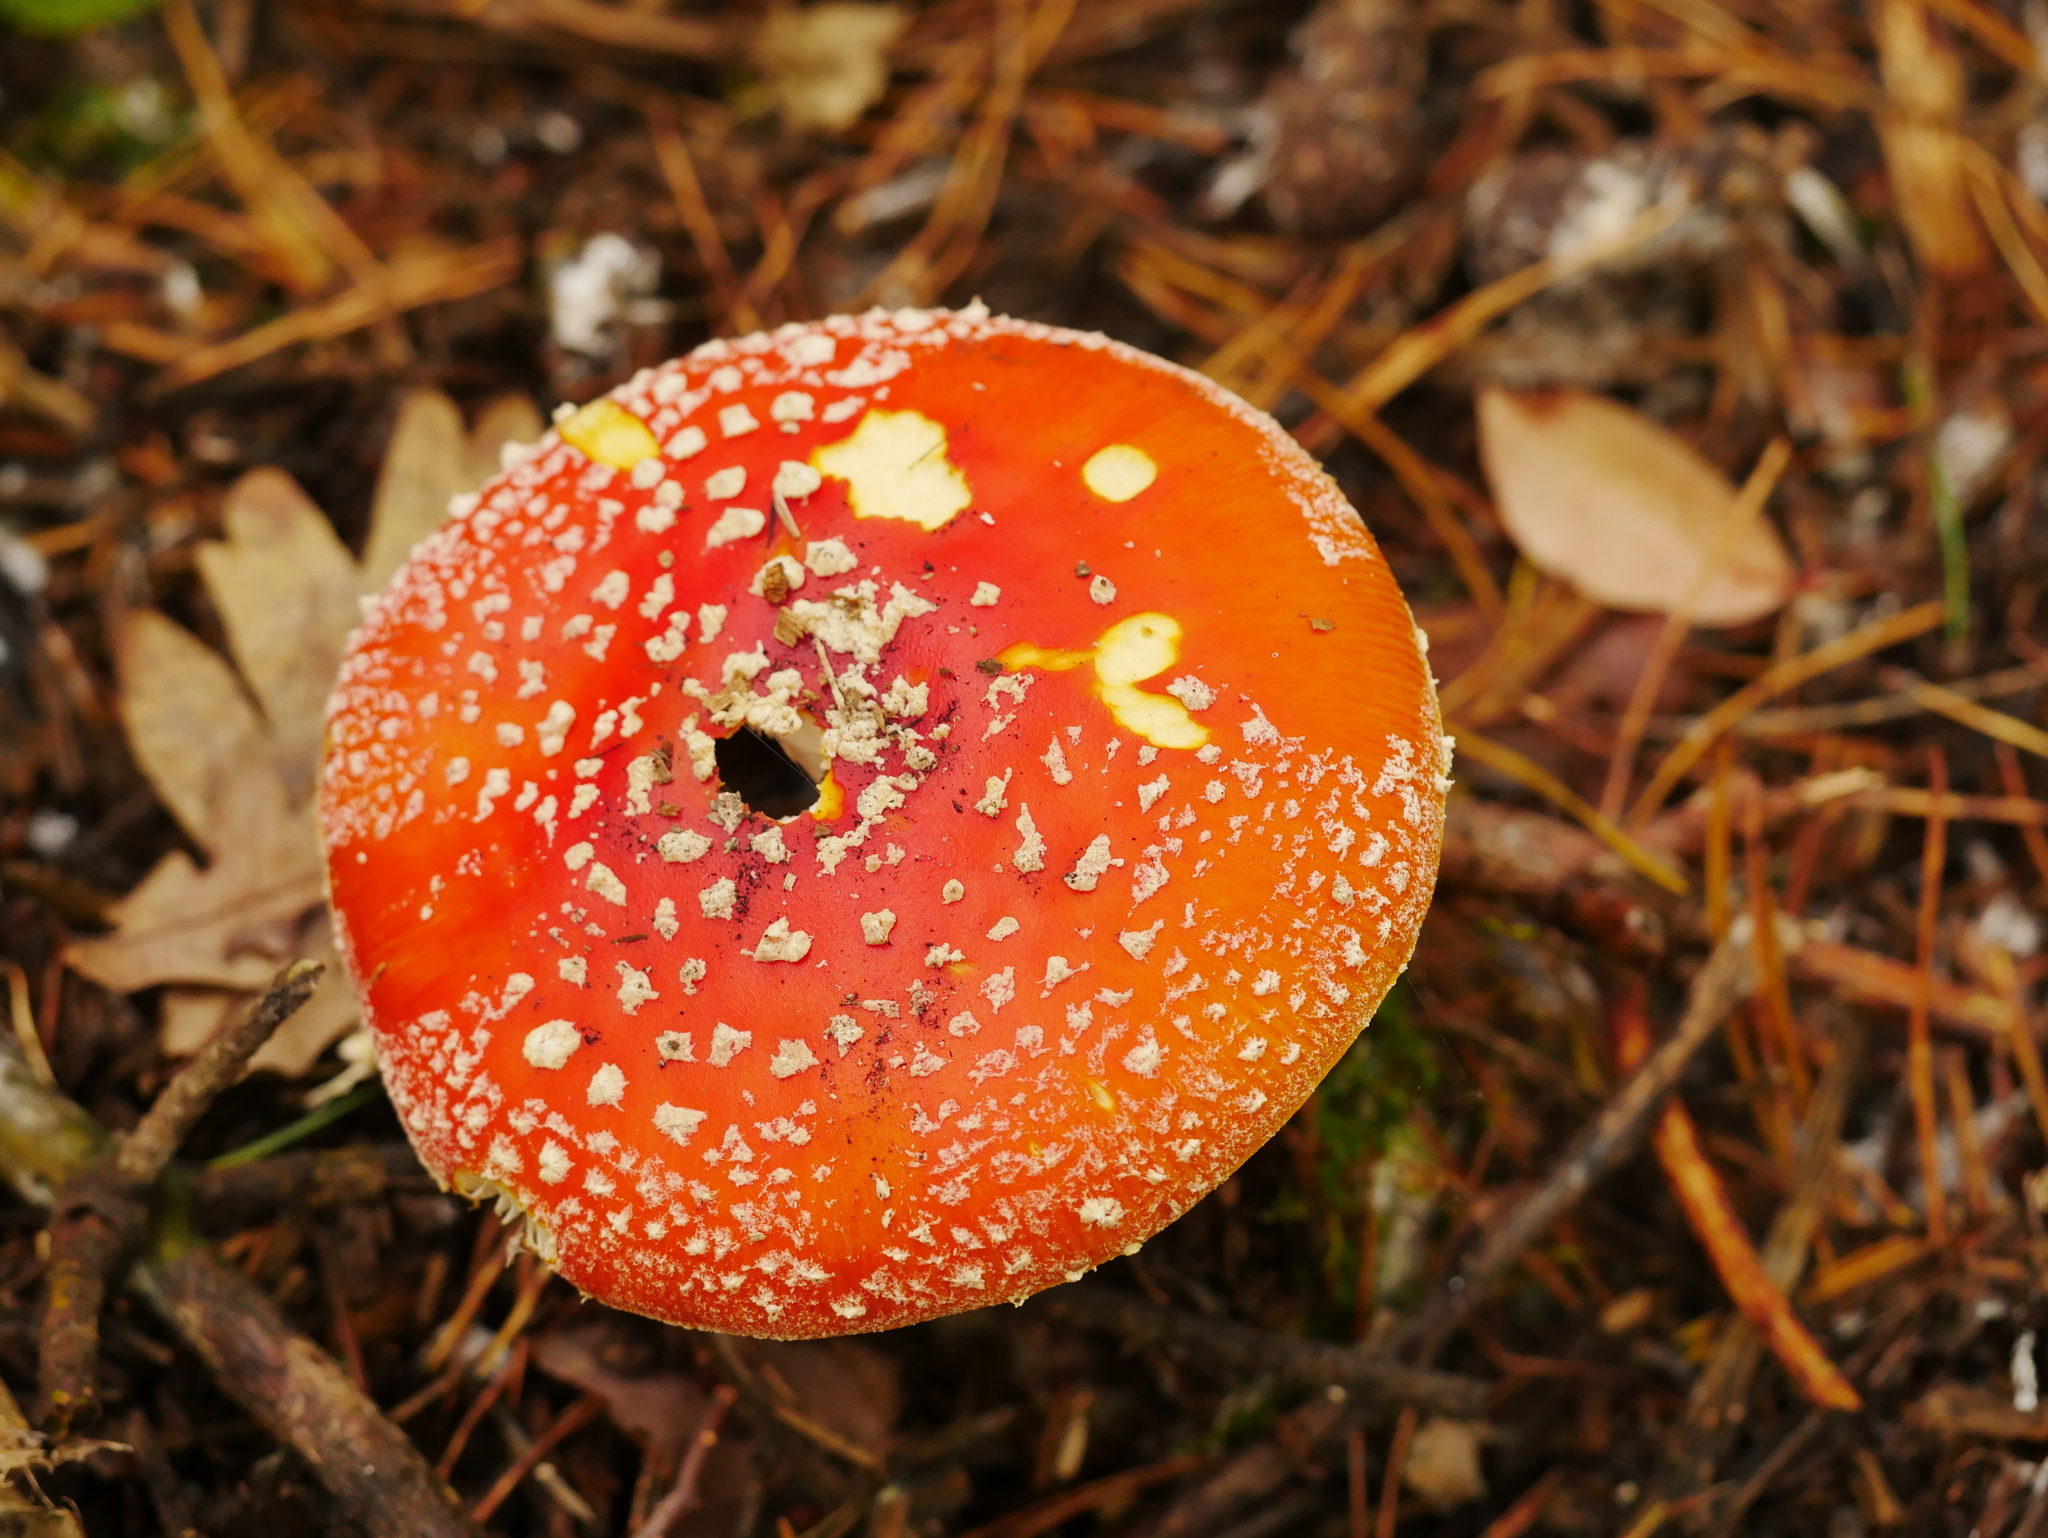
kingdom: Fungi
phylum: Basidiomycota
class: Agaricomycetes
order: Agaricales
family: Amanitaceae
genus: Amanita
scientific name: Amanita muscaria
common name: Fly agaric
